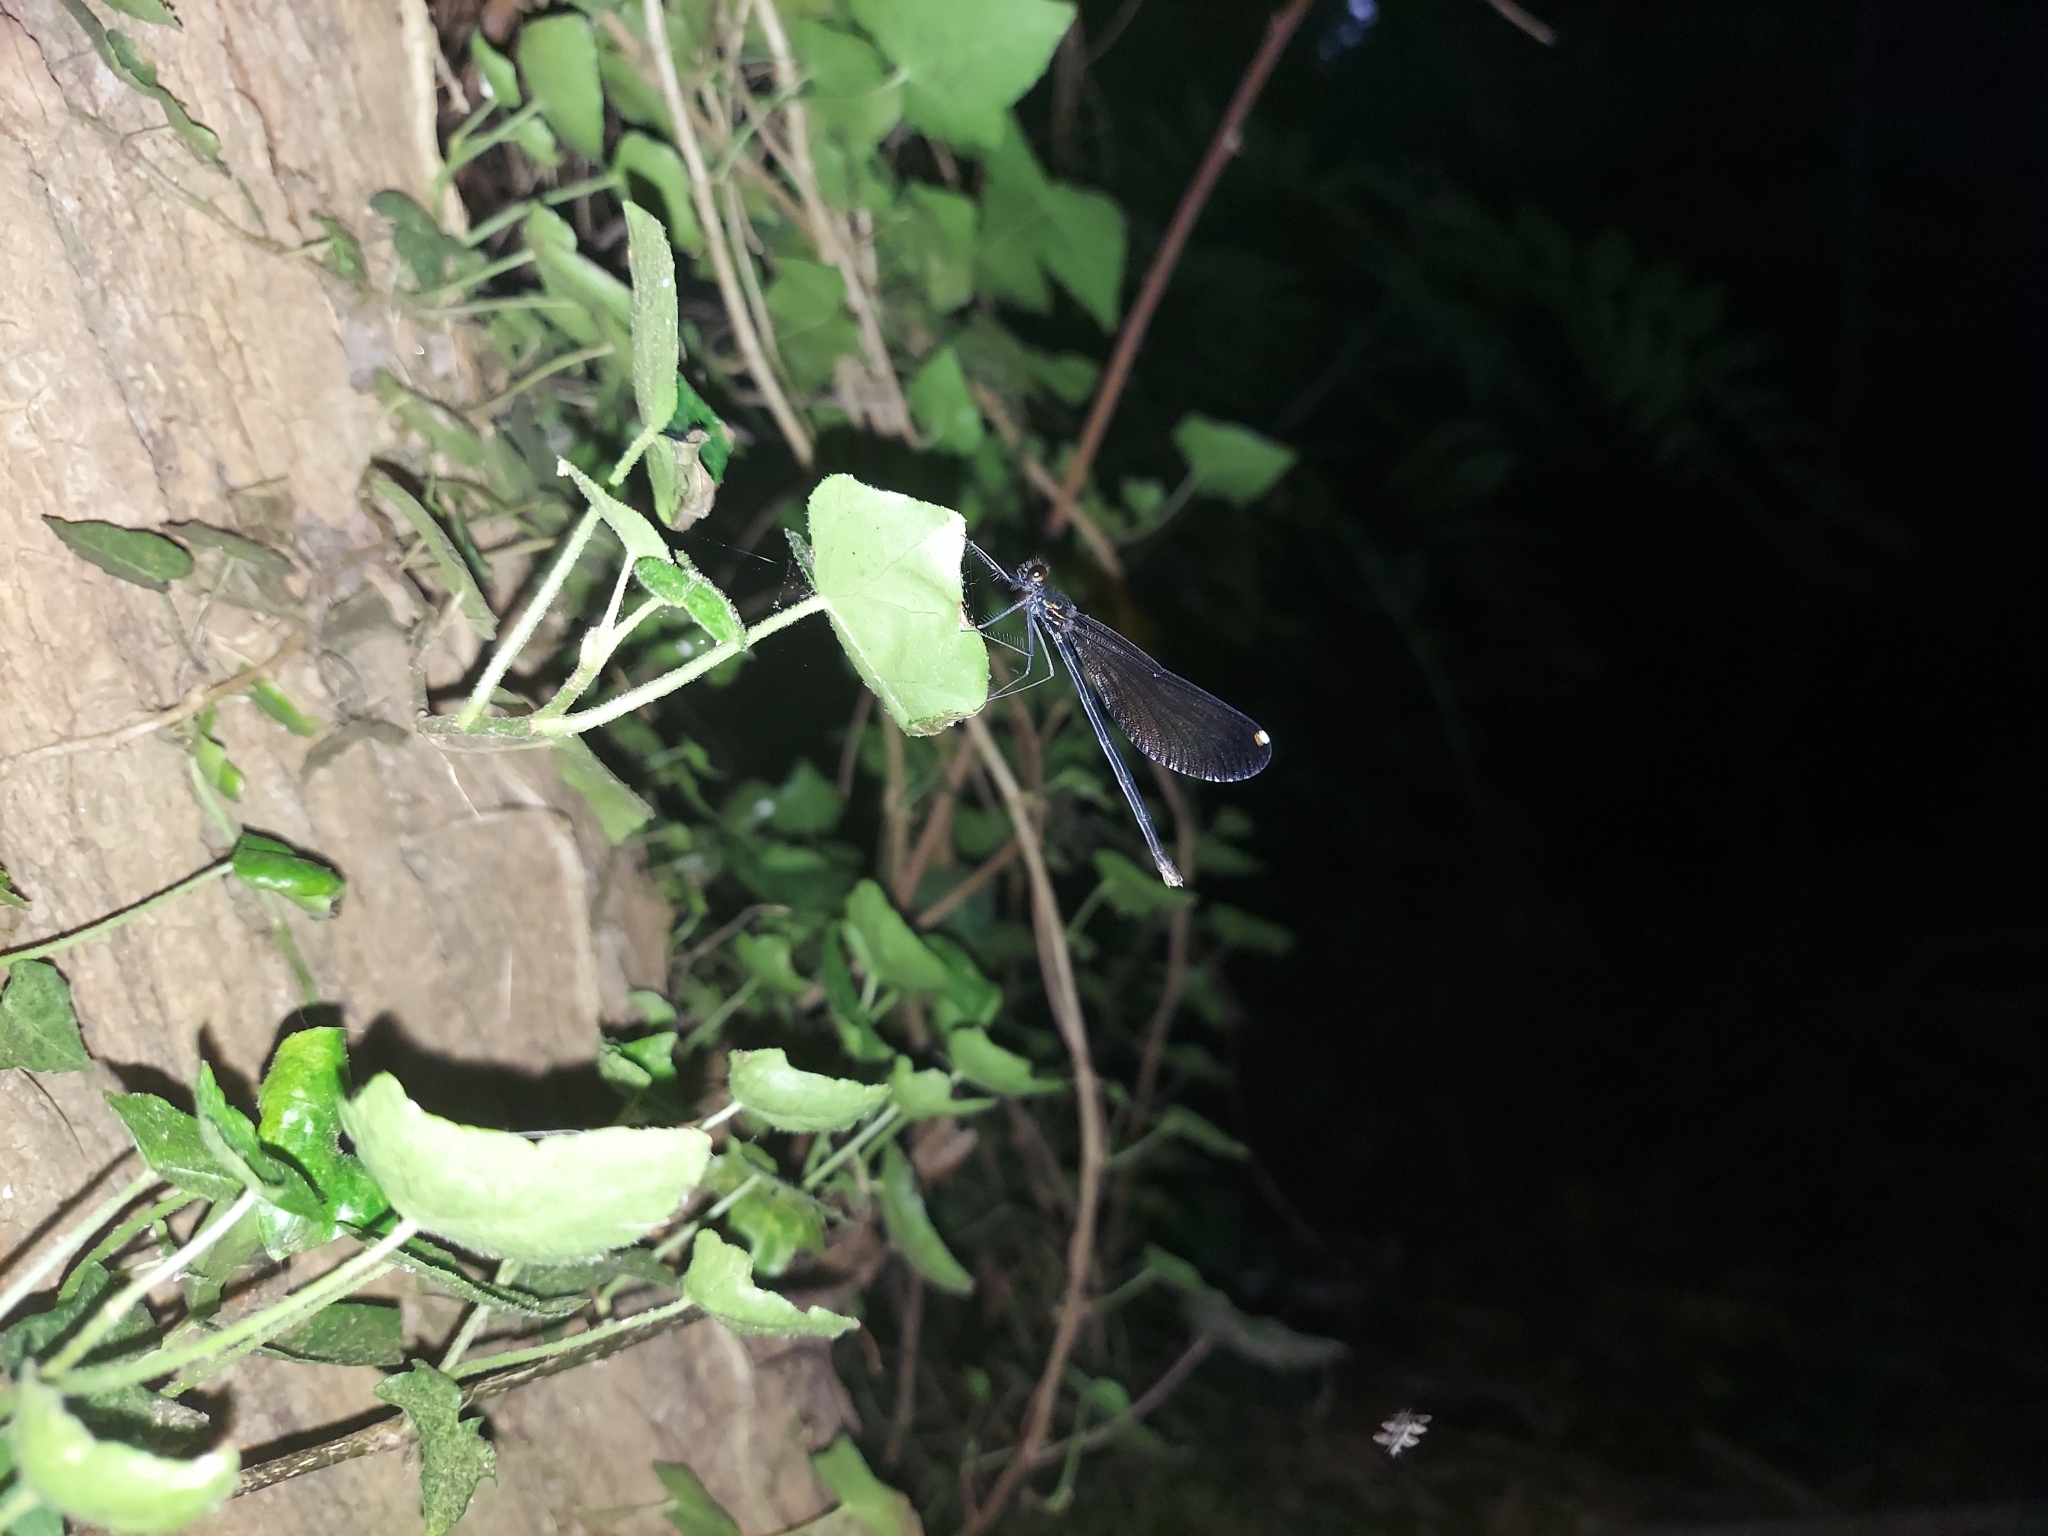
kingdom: Animalia
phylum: Arthropoda
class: Insecta
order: Odonata
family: Calopterygidae
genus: Calopteryx
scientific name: Calopteryx maculata
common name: Ebony jewelwing
